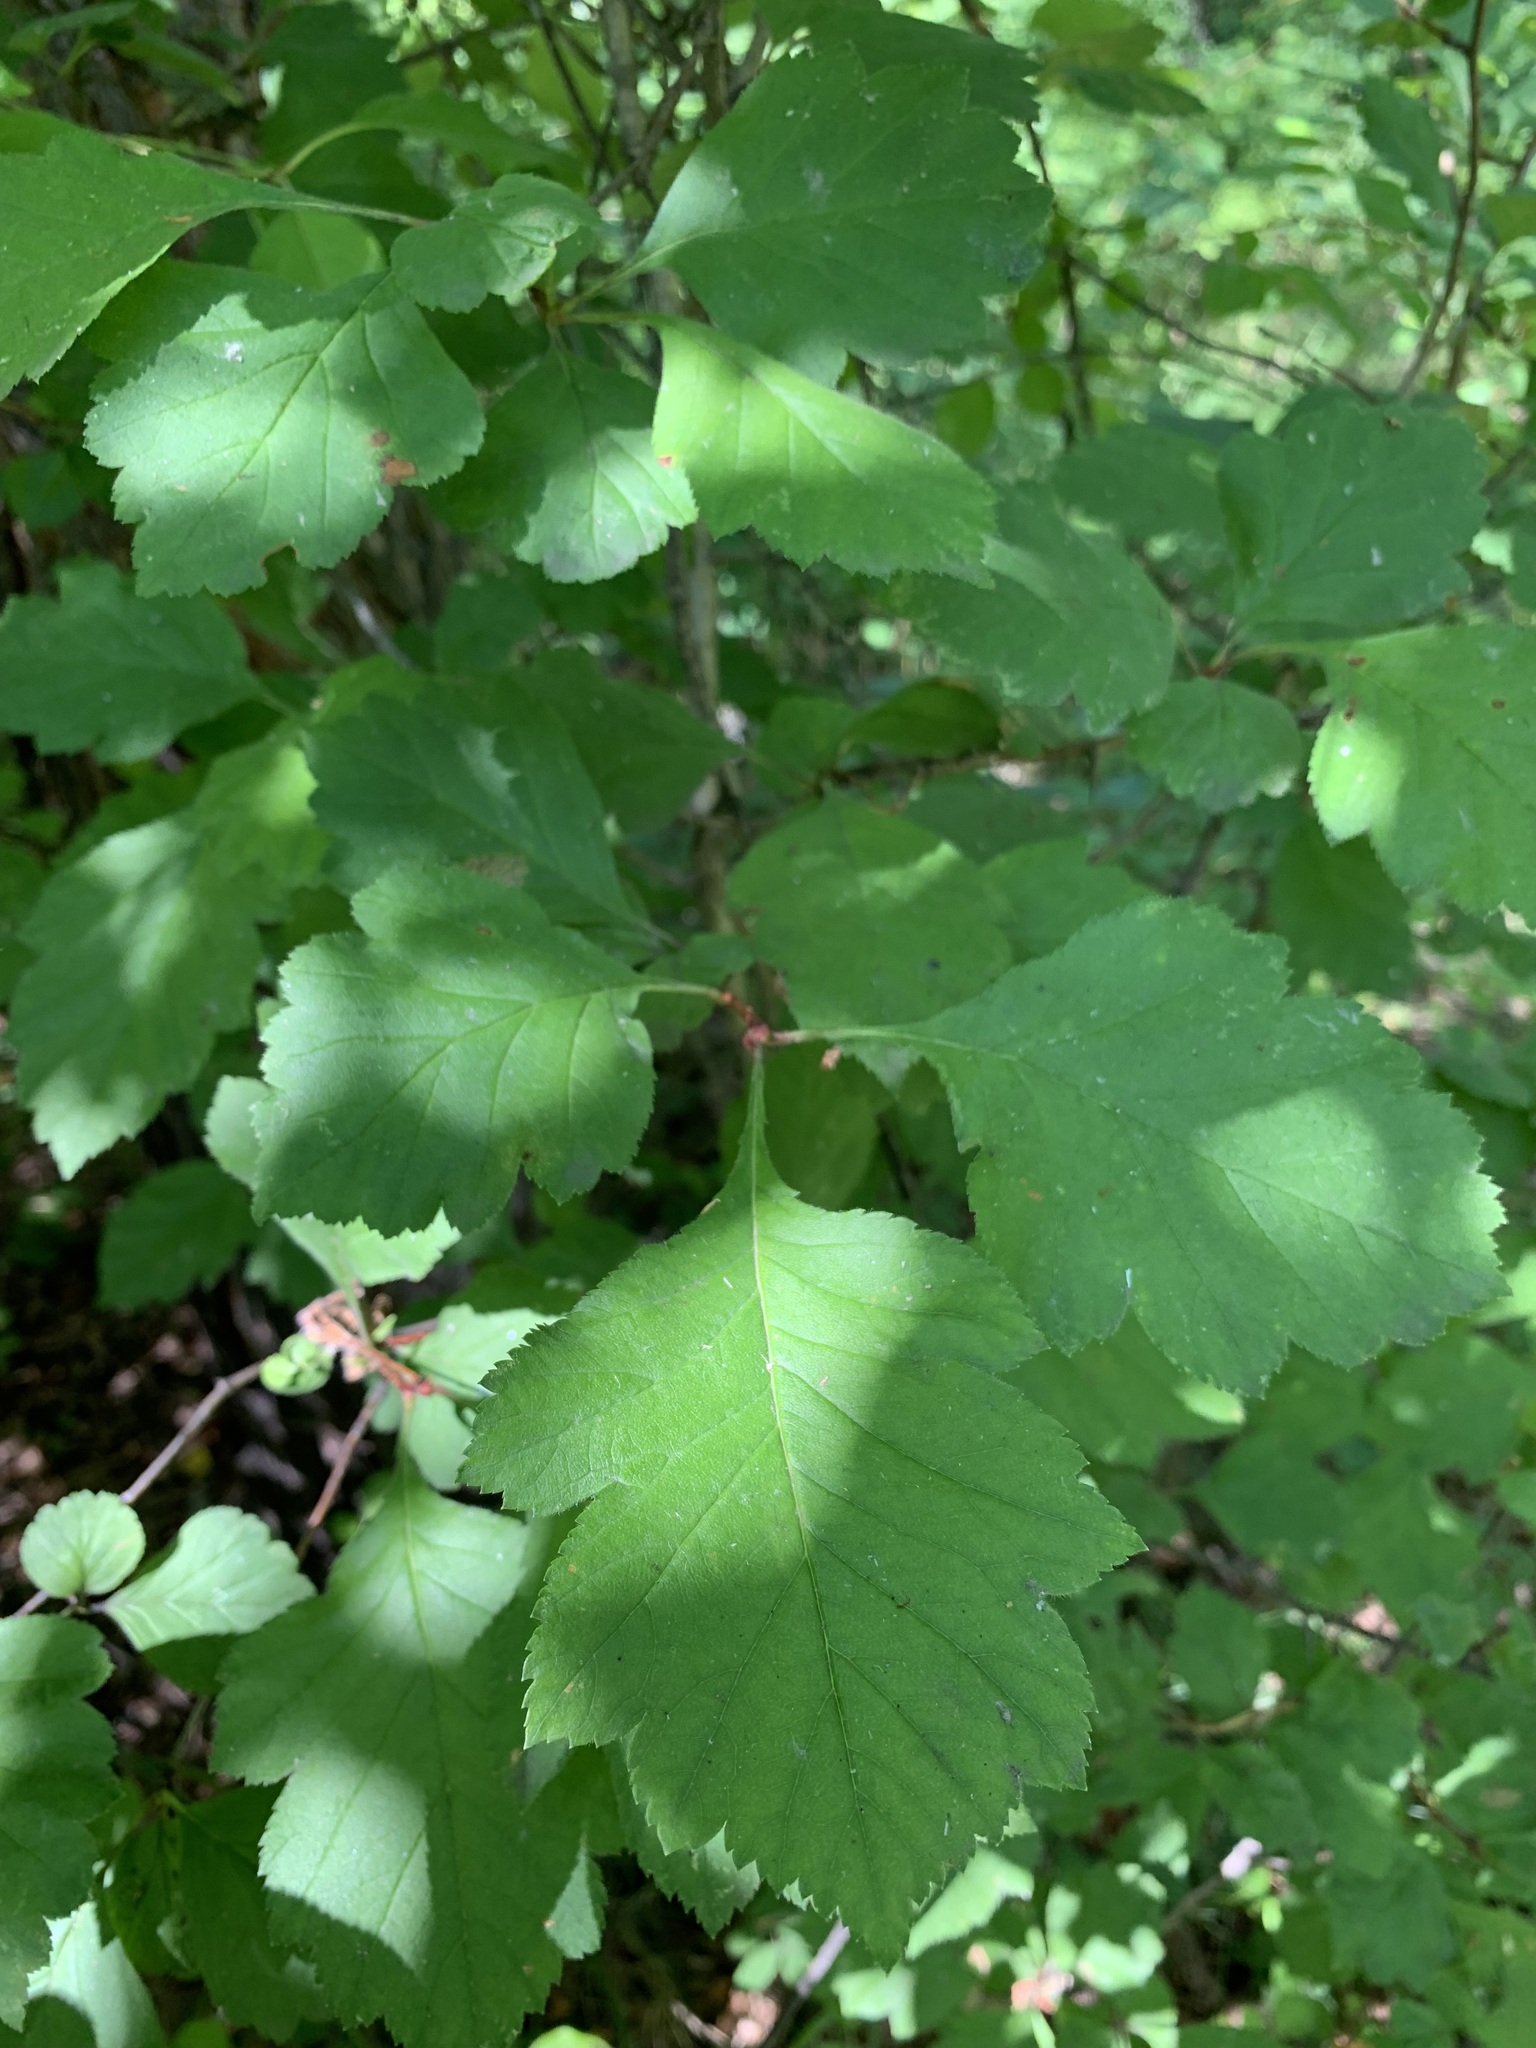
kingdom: Plantae
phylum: Tracheophyta
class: Magnoliopsida
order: Rosales
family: Rosaceae
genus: Crataegus
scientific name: Crataegus sanguinea
